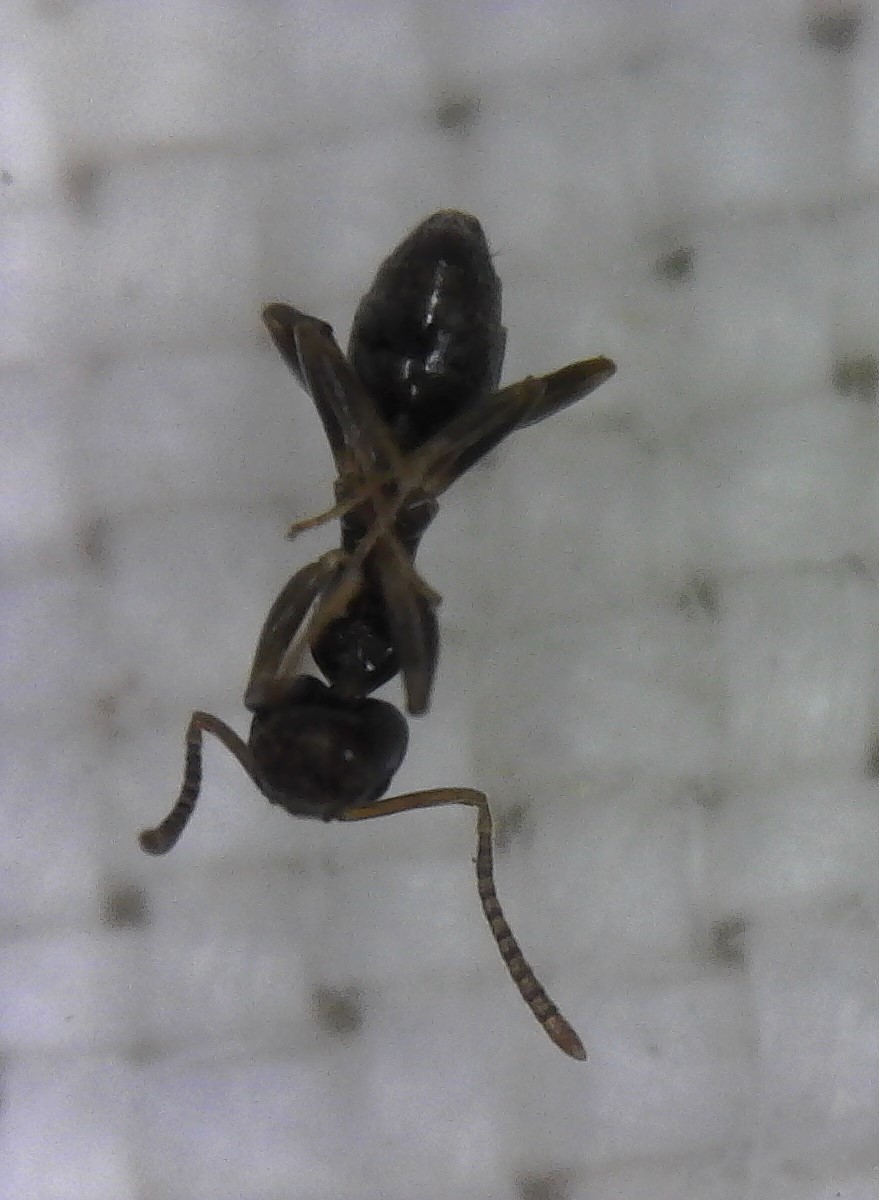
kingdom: Animalia
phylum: Arthropoda
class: Insecta
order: Hymenoptera
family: Formicidae
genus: Tapinoma
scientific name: Tapinoma sessile
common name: Odorous house ant
